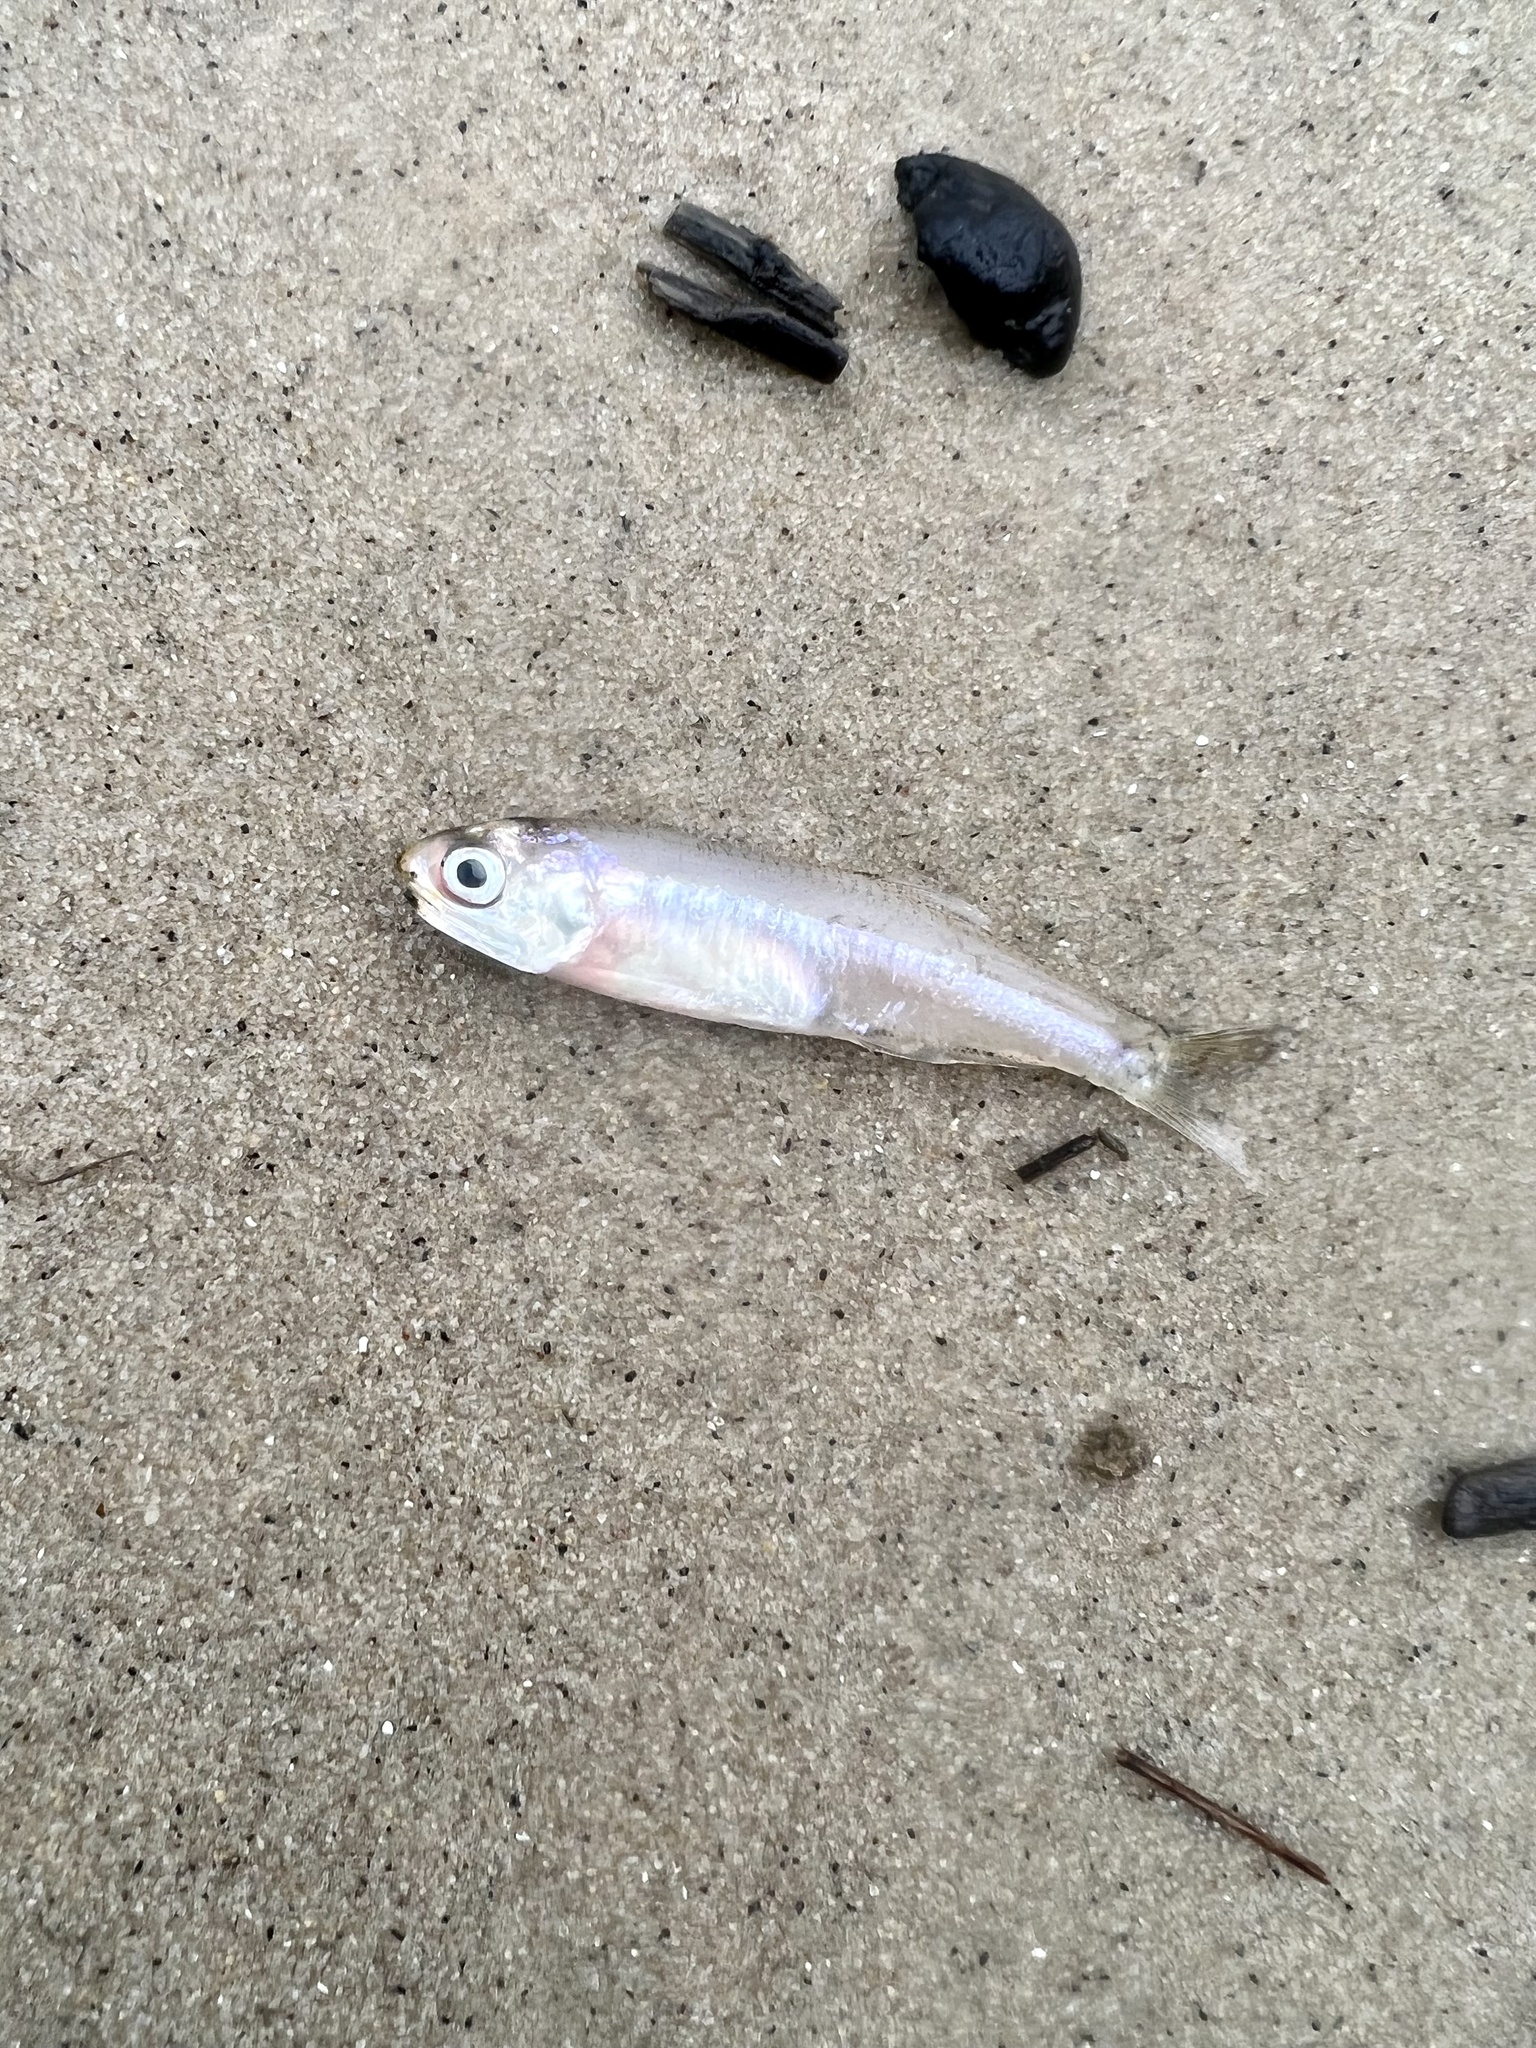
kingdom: Animalia
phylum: Chordata
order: Clupeiformes
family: Engraulidae
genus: Anchoa
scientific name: Anchoa mitchilli
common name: Bay anchovy
